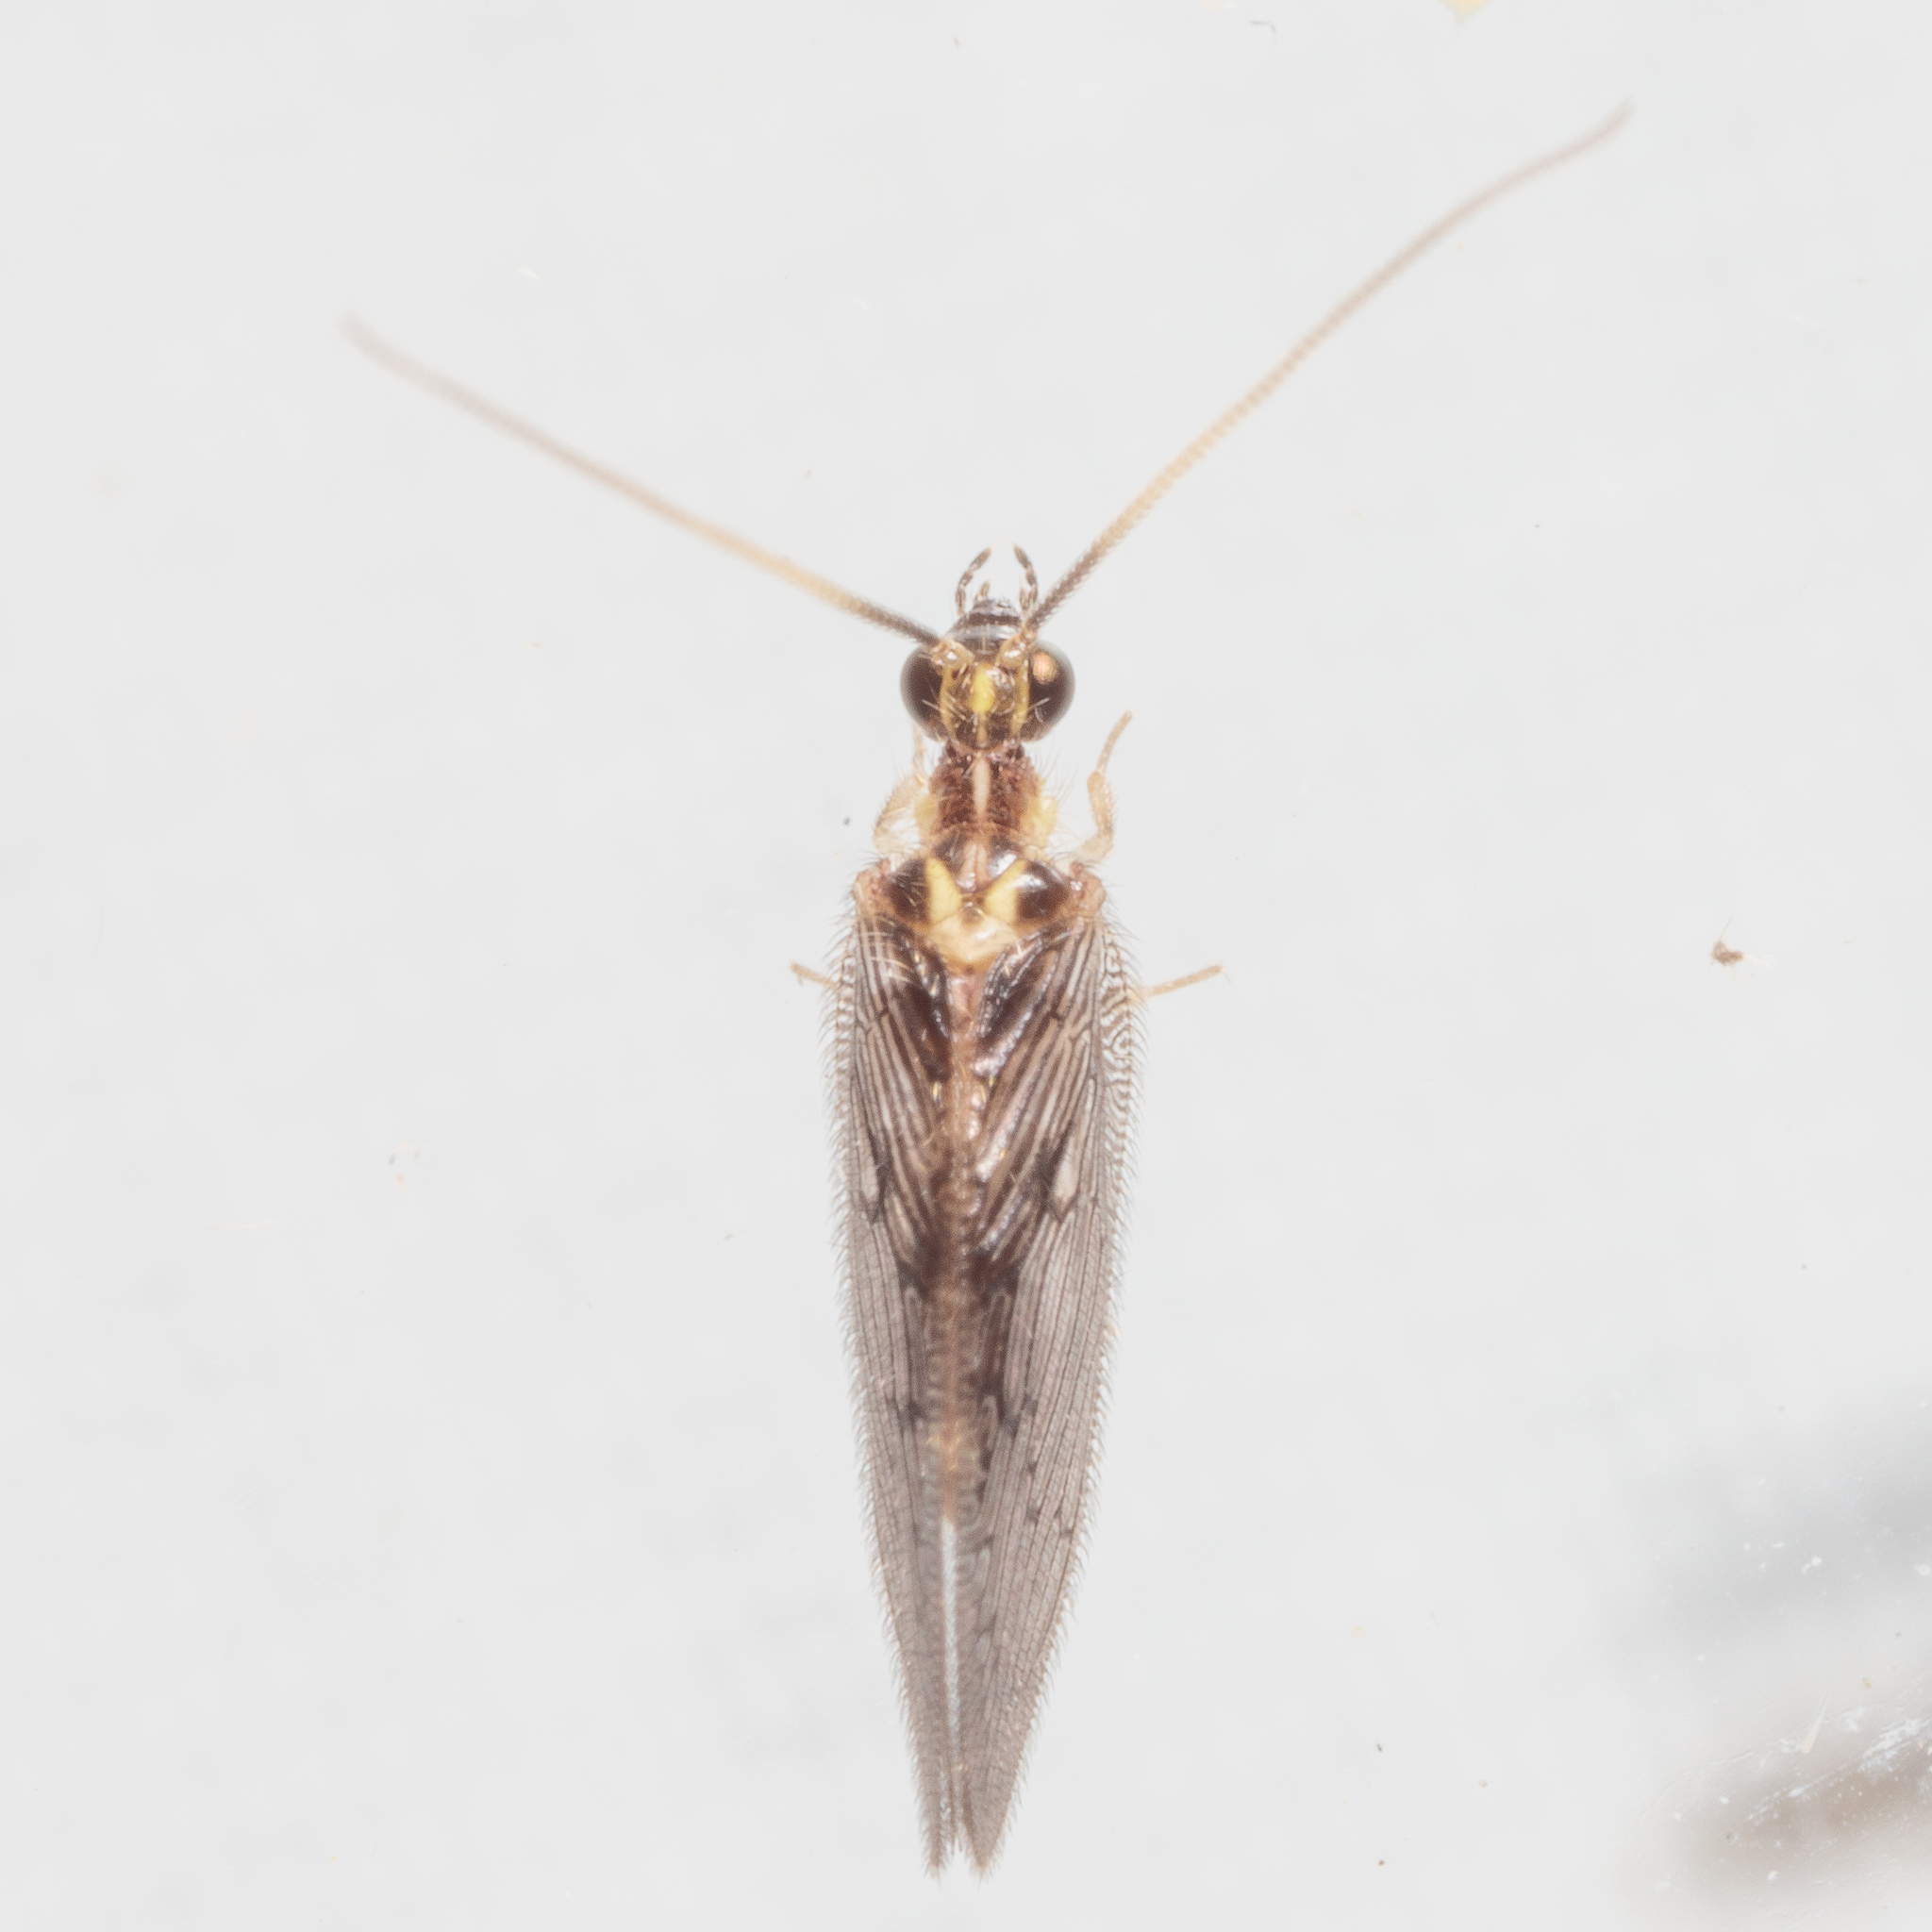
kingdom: Animalia
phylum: Arthropoda
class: Insecta
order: Neuroptera
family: Hemerobiidae
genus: Sympherobius
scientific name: Sympherobius occidentalis
